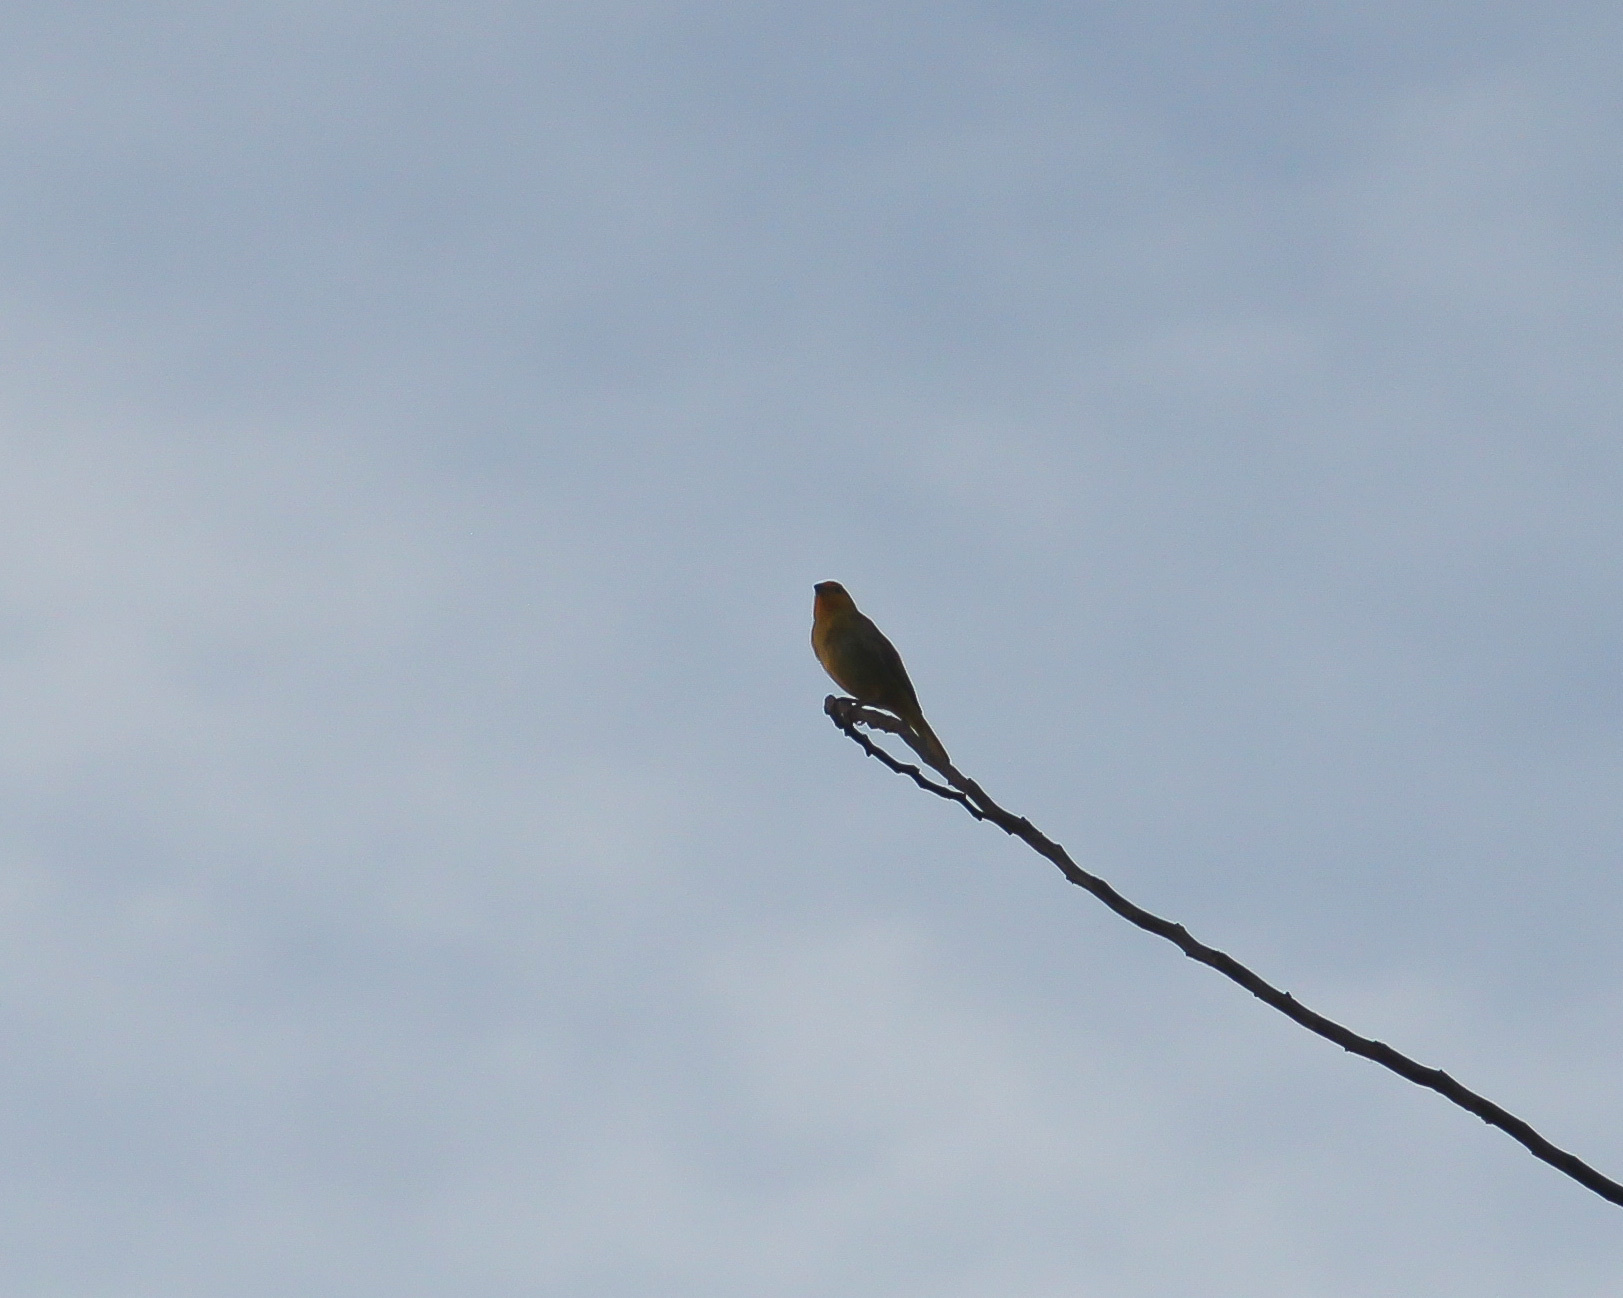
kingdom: Animalia
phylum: Chordata
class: Aves
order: Passeriformes
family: Thraupidae
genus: Sicalis
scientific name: Sicalis flaveola
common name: Saffron finch
